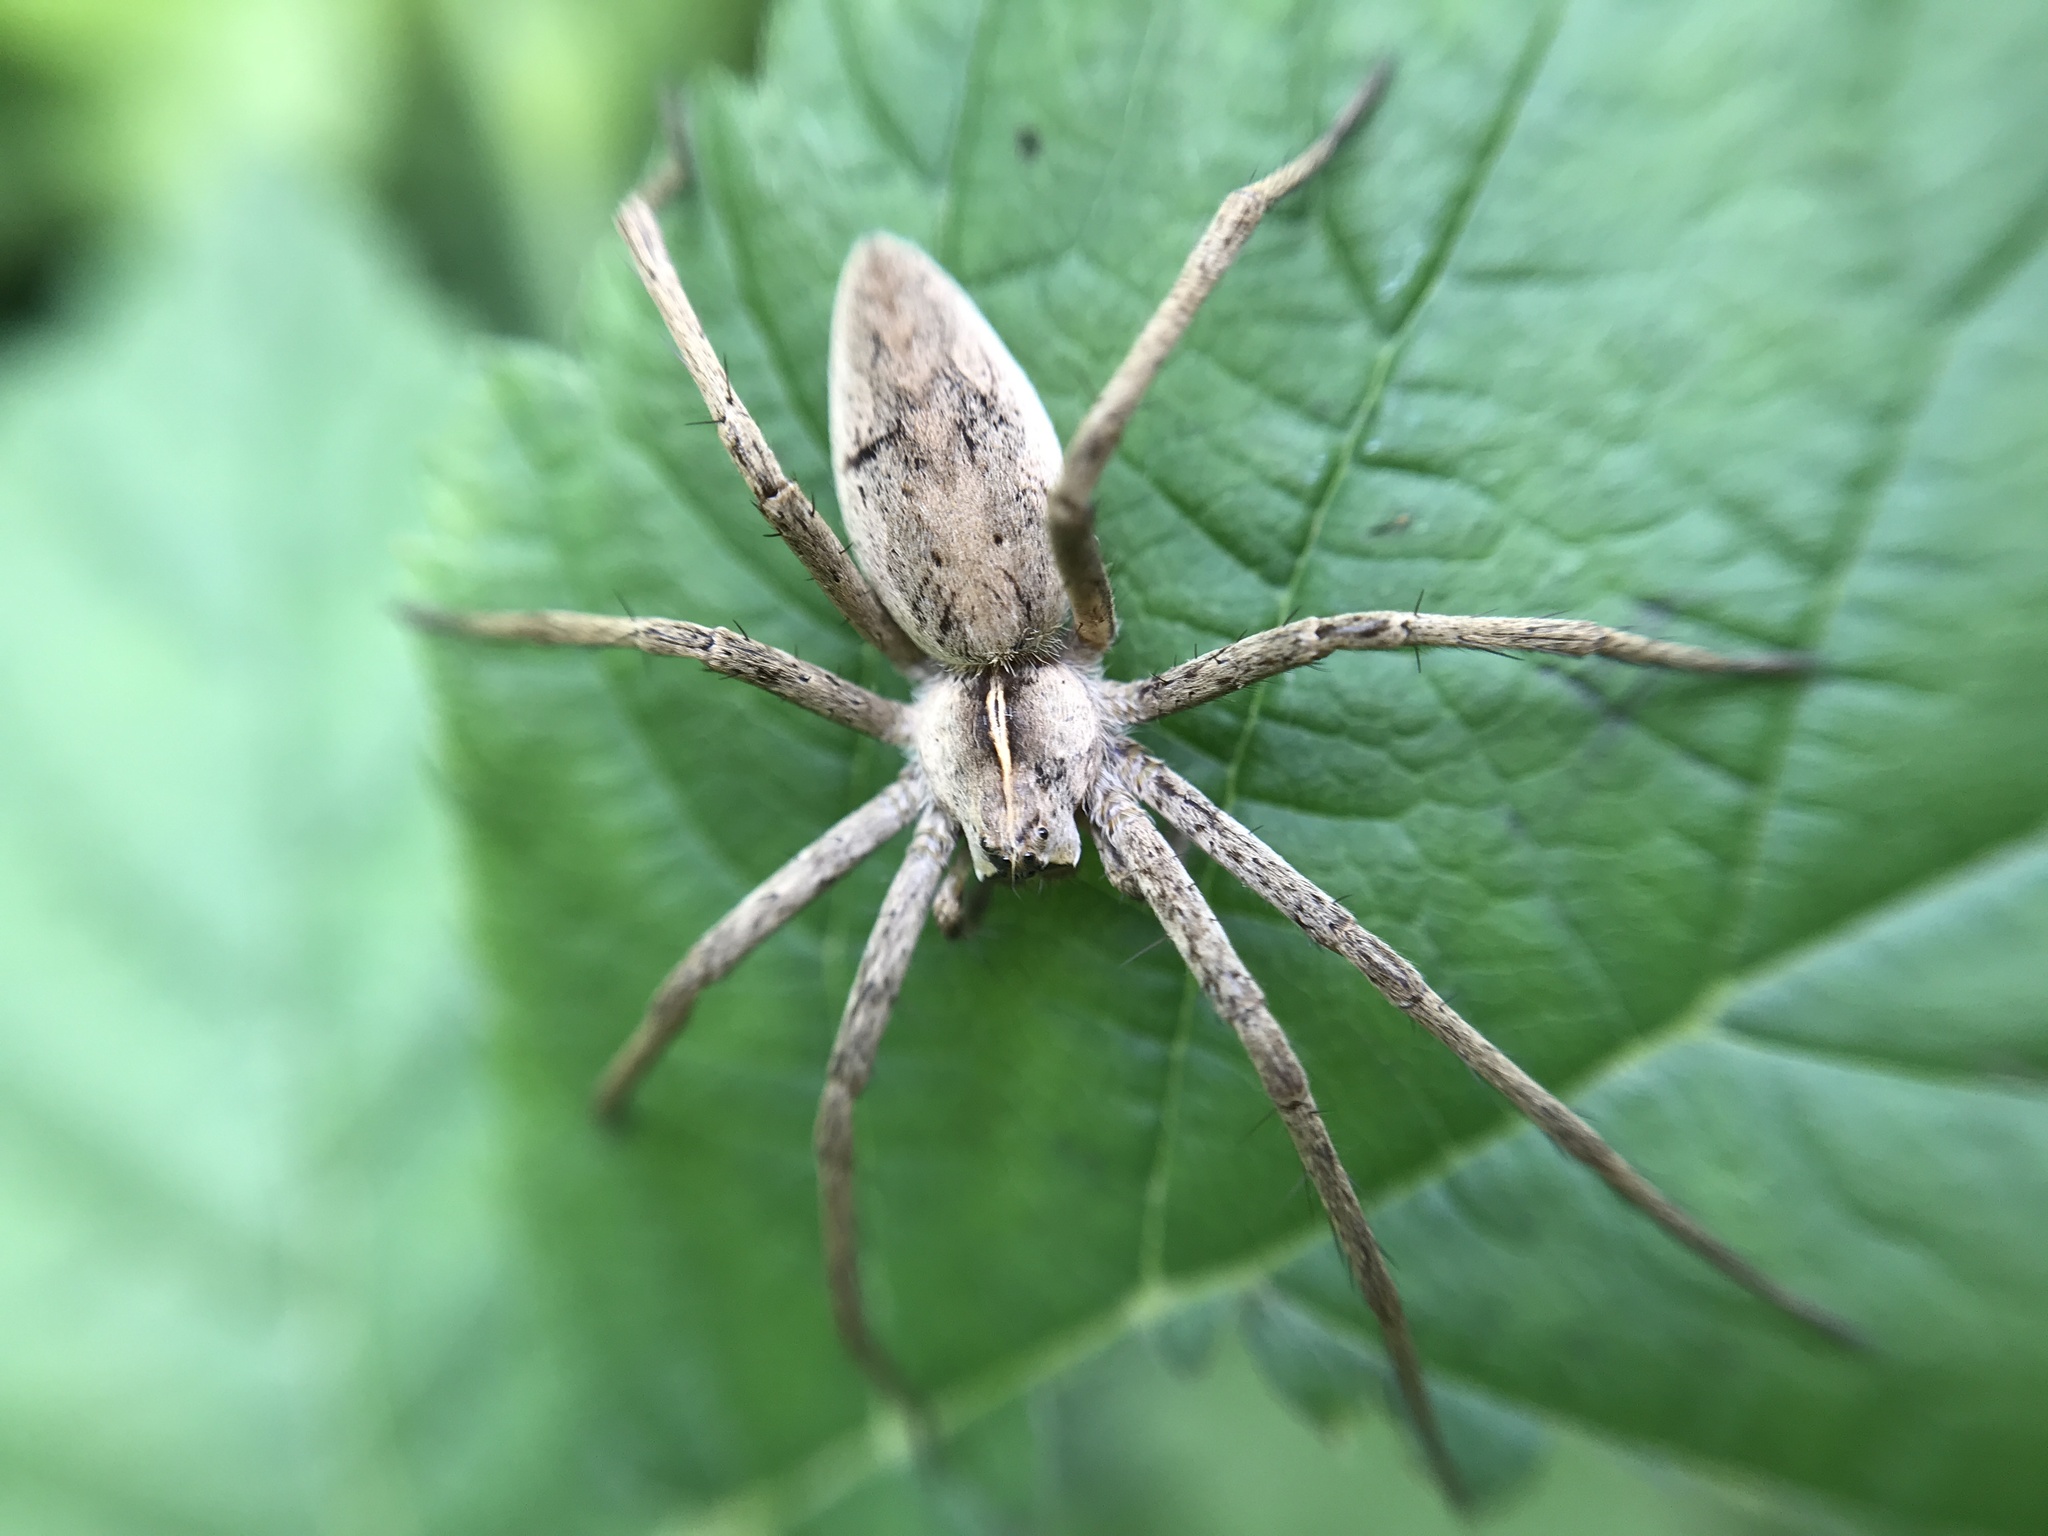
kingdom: Animalia
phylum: Arthropoda
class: Arachnida
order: Araneae
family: Pisauridae
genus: Pisaura
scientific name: Pisaura mirabilis
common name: Tent spider
